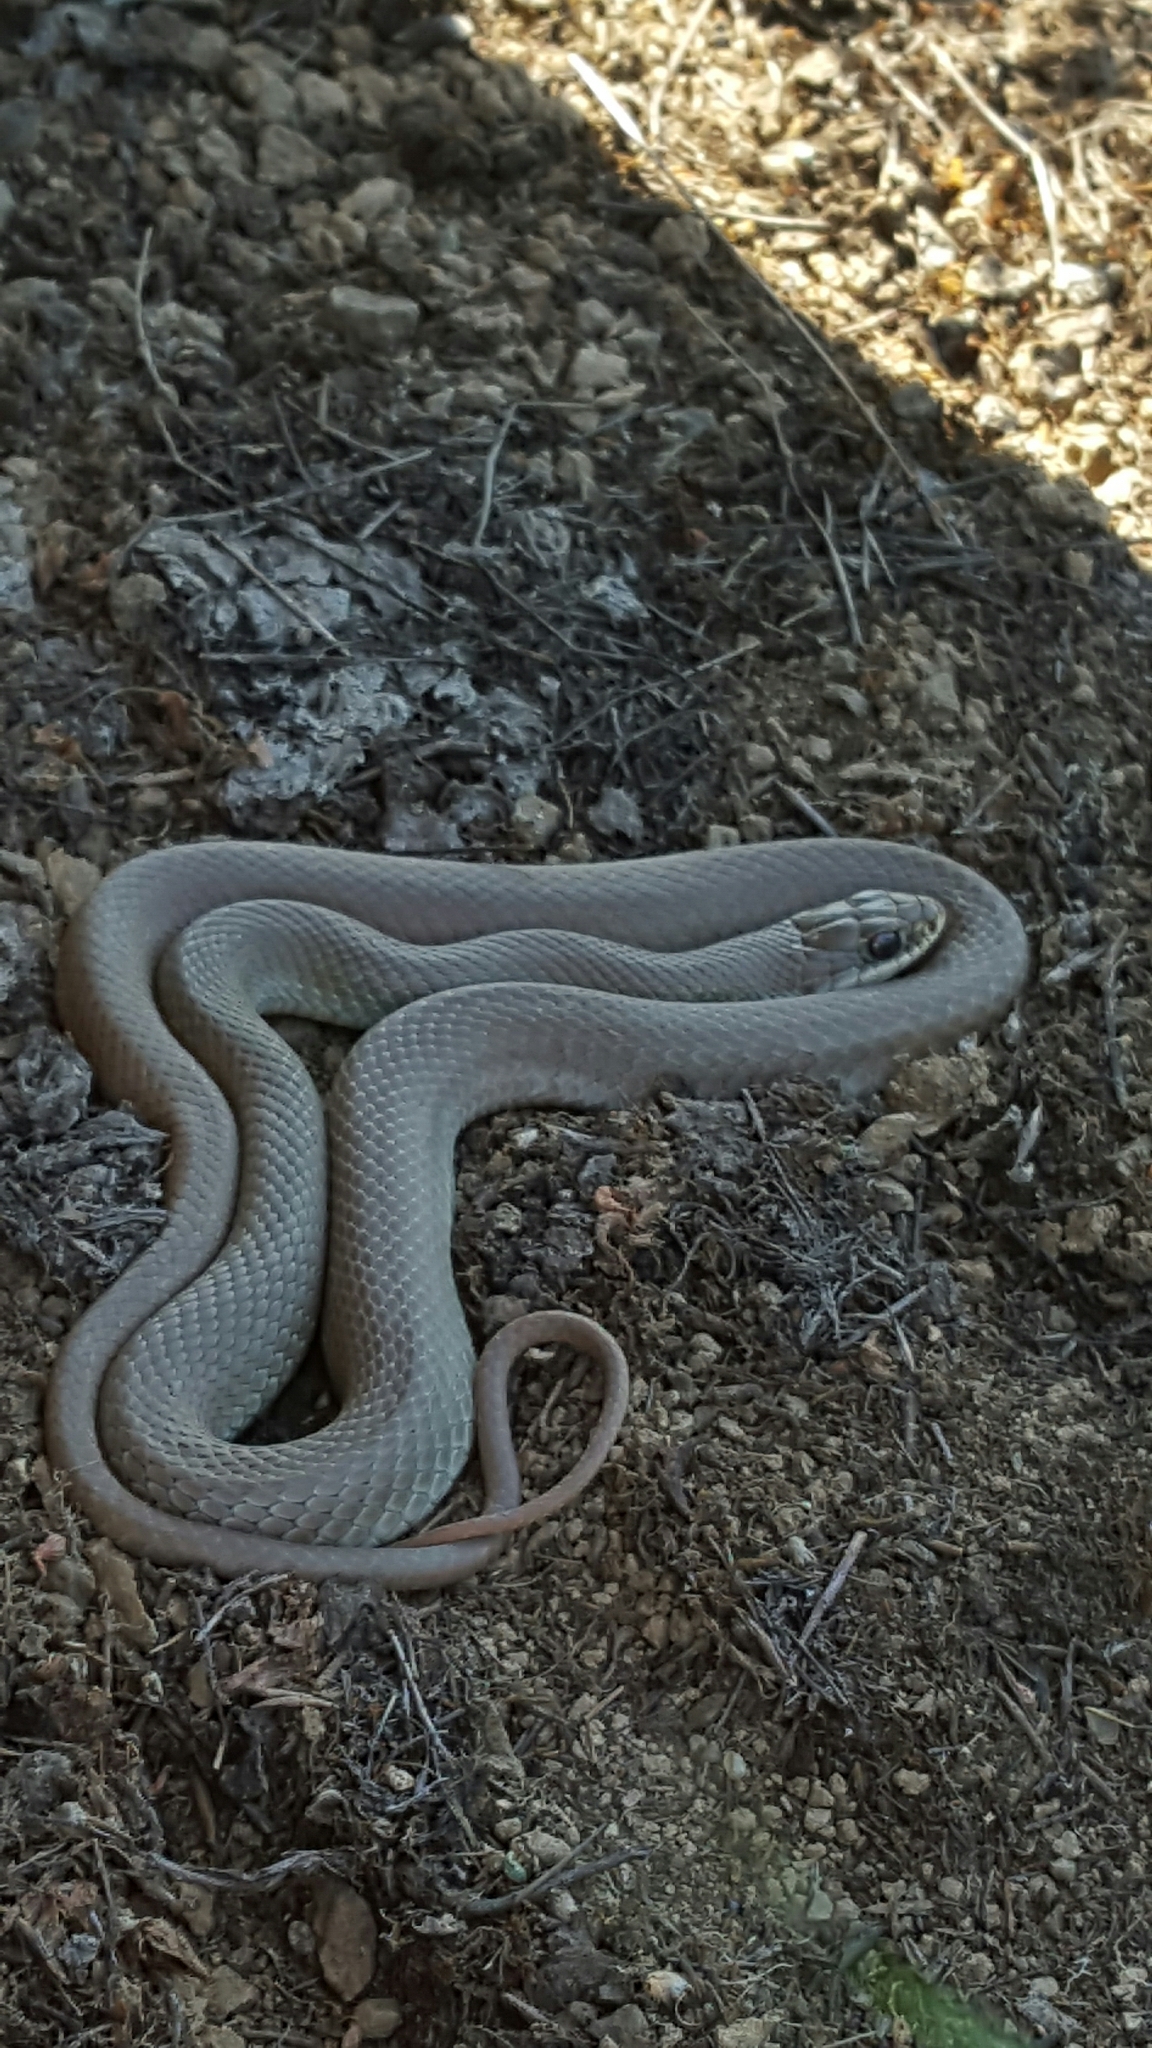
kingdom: Animalia
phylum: Chordata
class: Squamata
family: Colubridae
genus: Coluber
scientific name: Coluber constrictor
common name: Eastern racer
